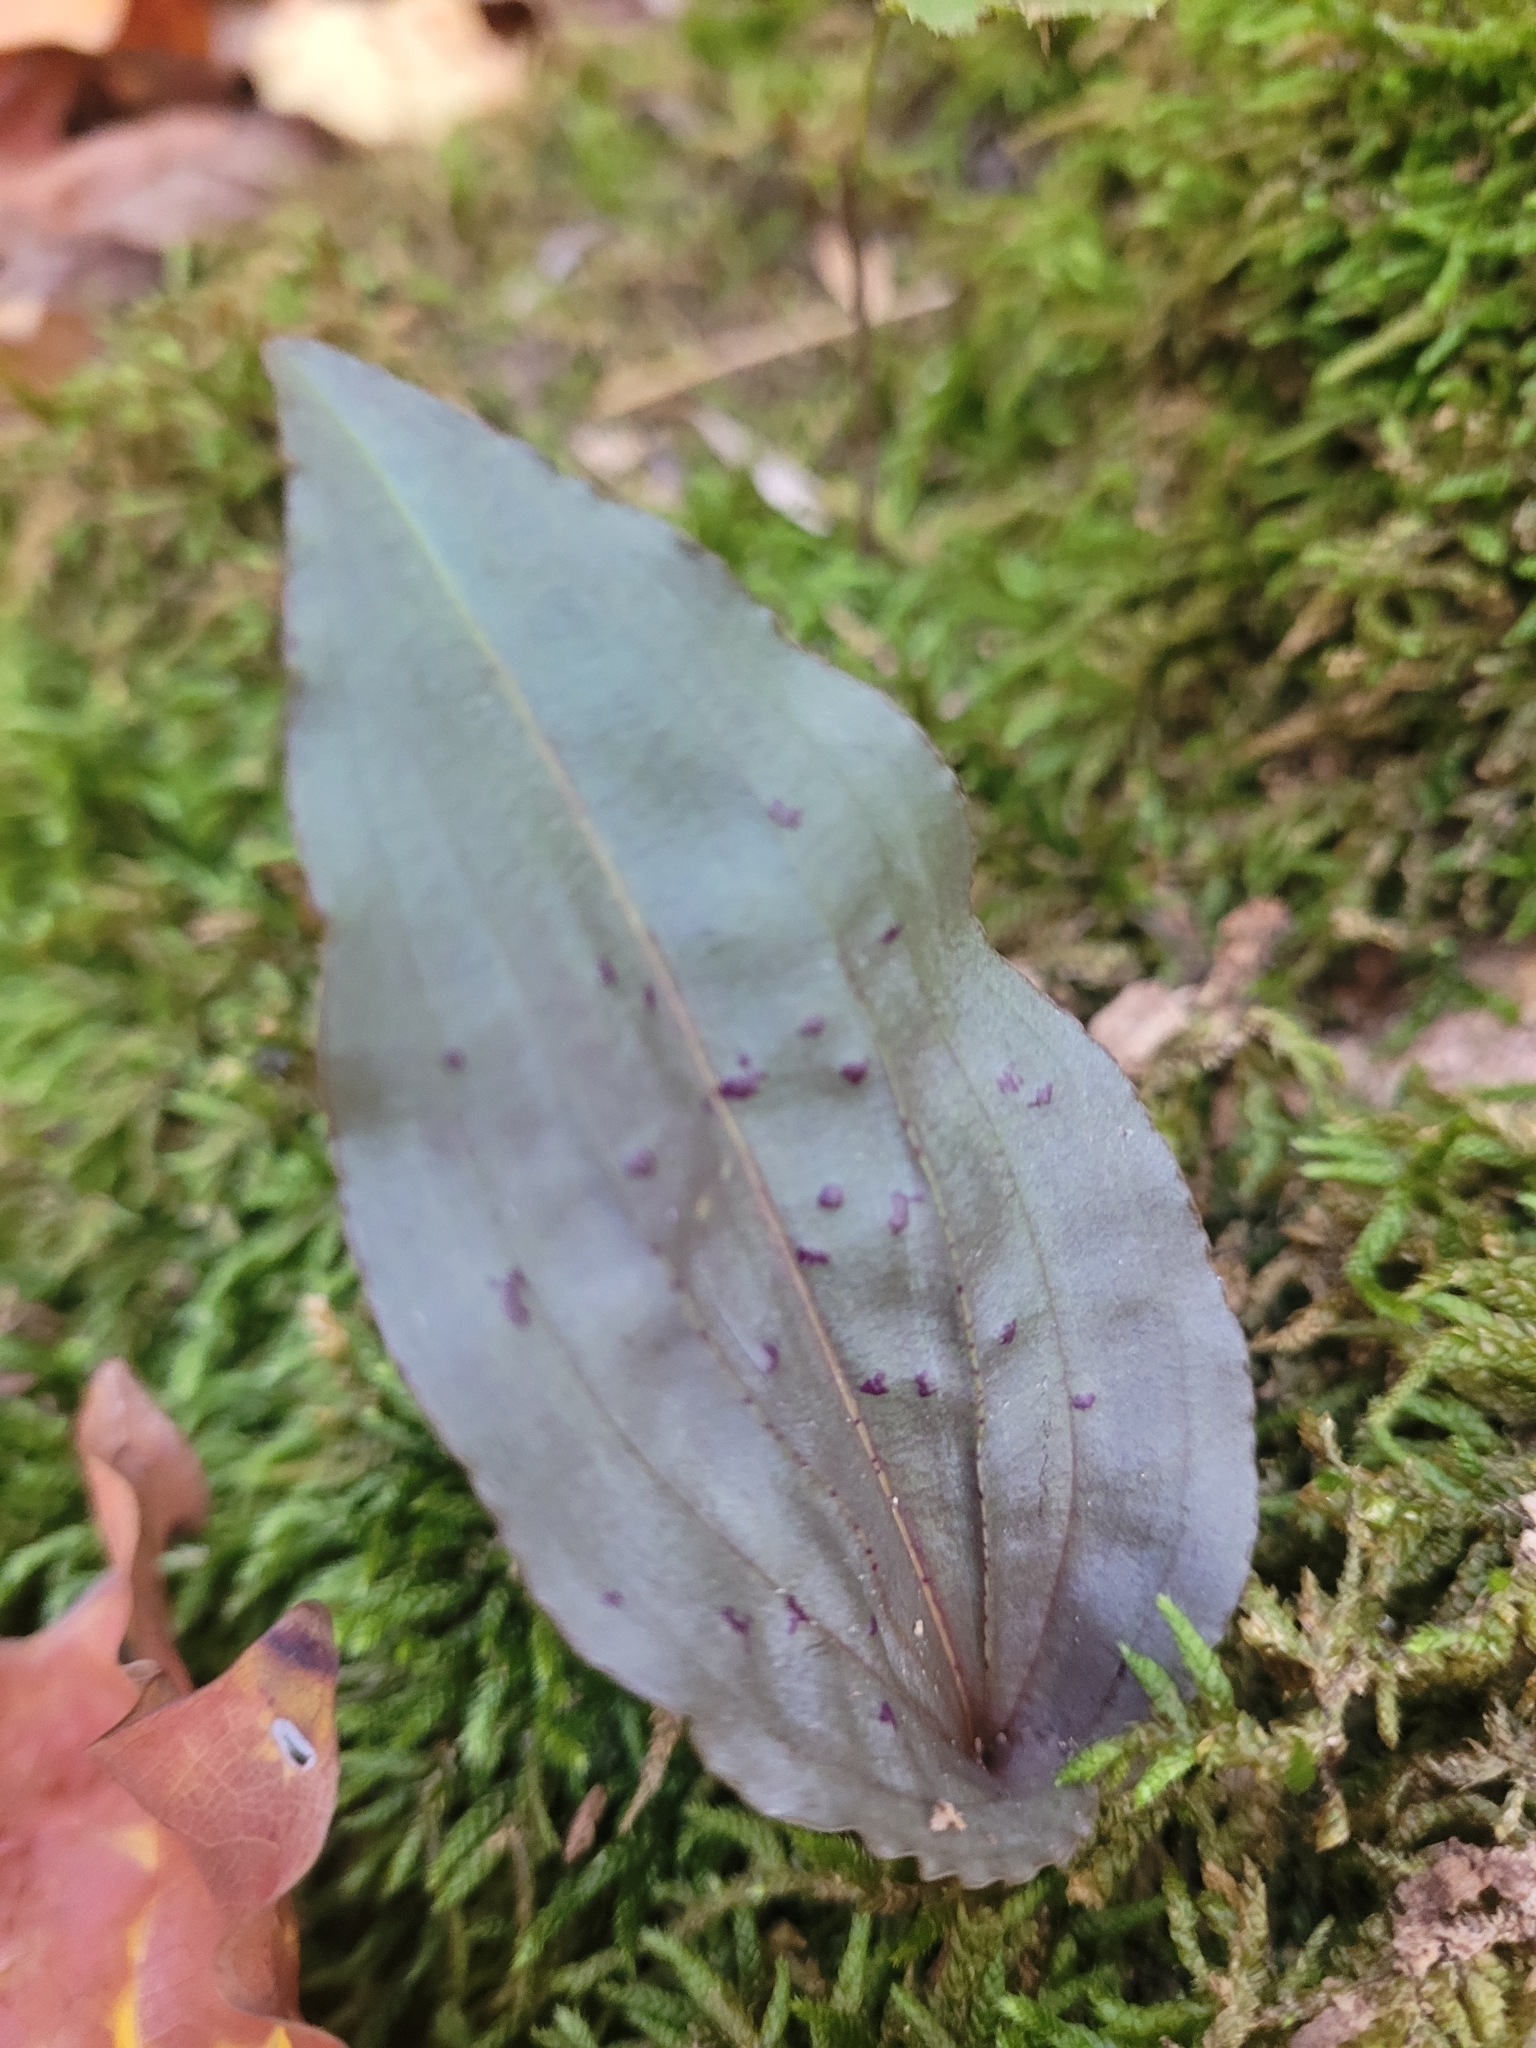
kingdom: Plantae
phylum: Tracheophyta
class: Liliopsida
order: Asparagales
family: Orchidaceae
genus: Tipularia
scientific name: Tipularia discolor
